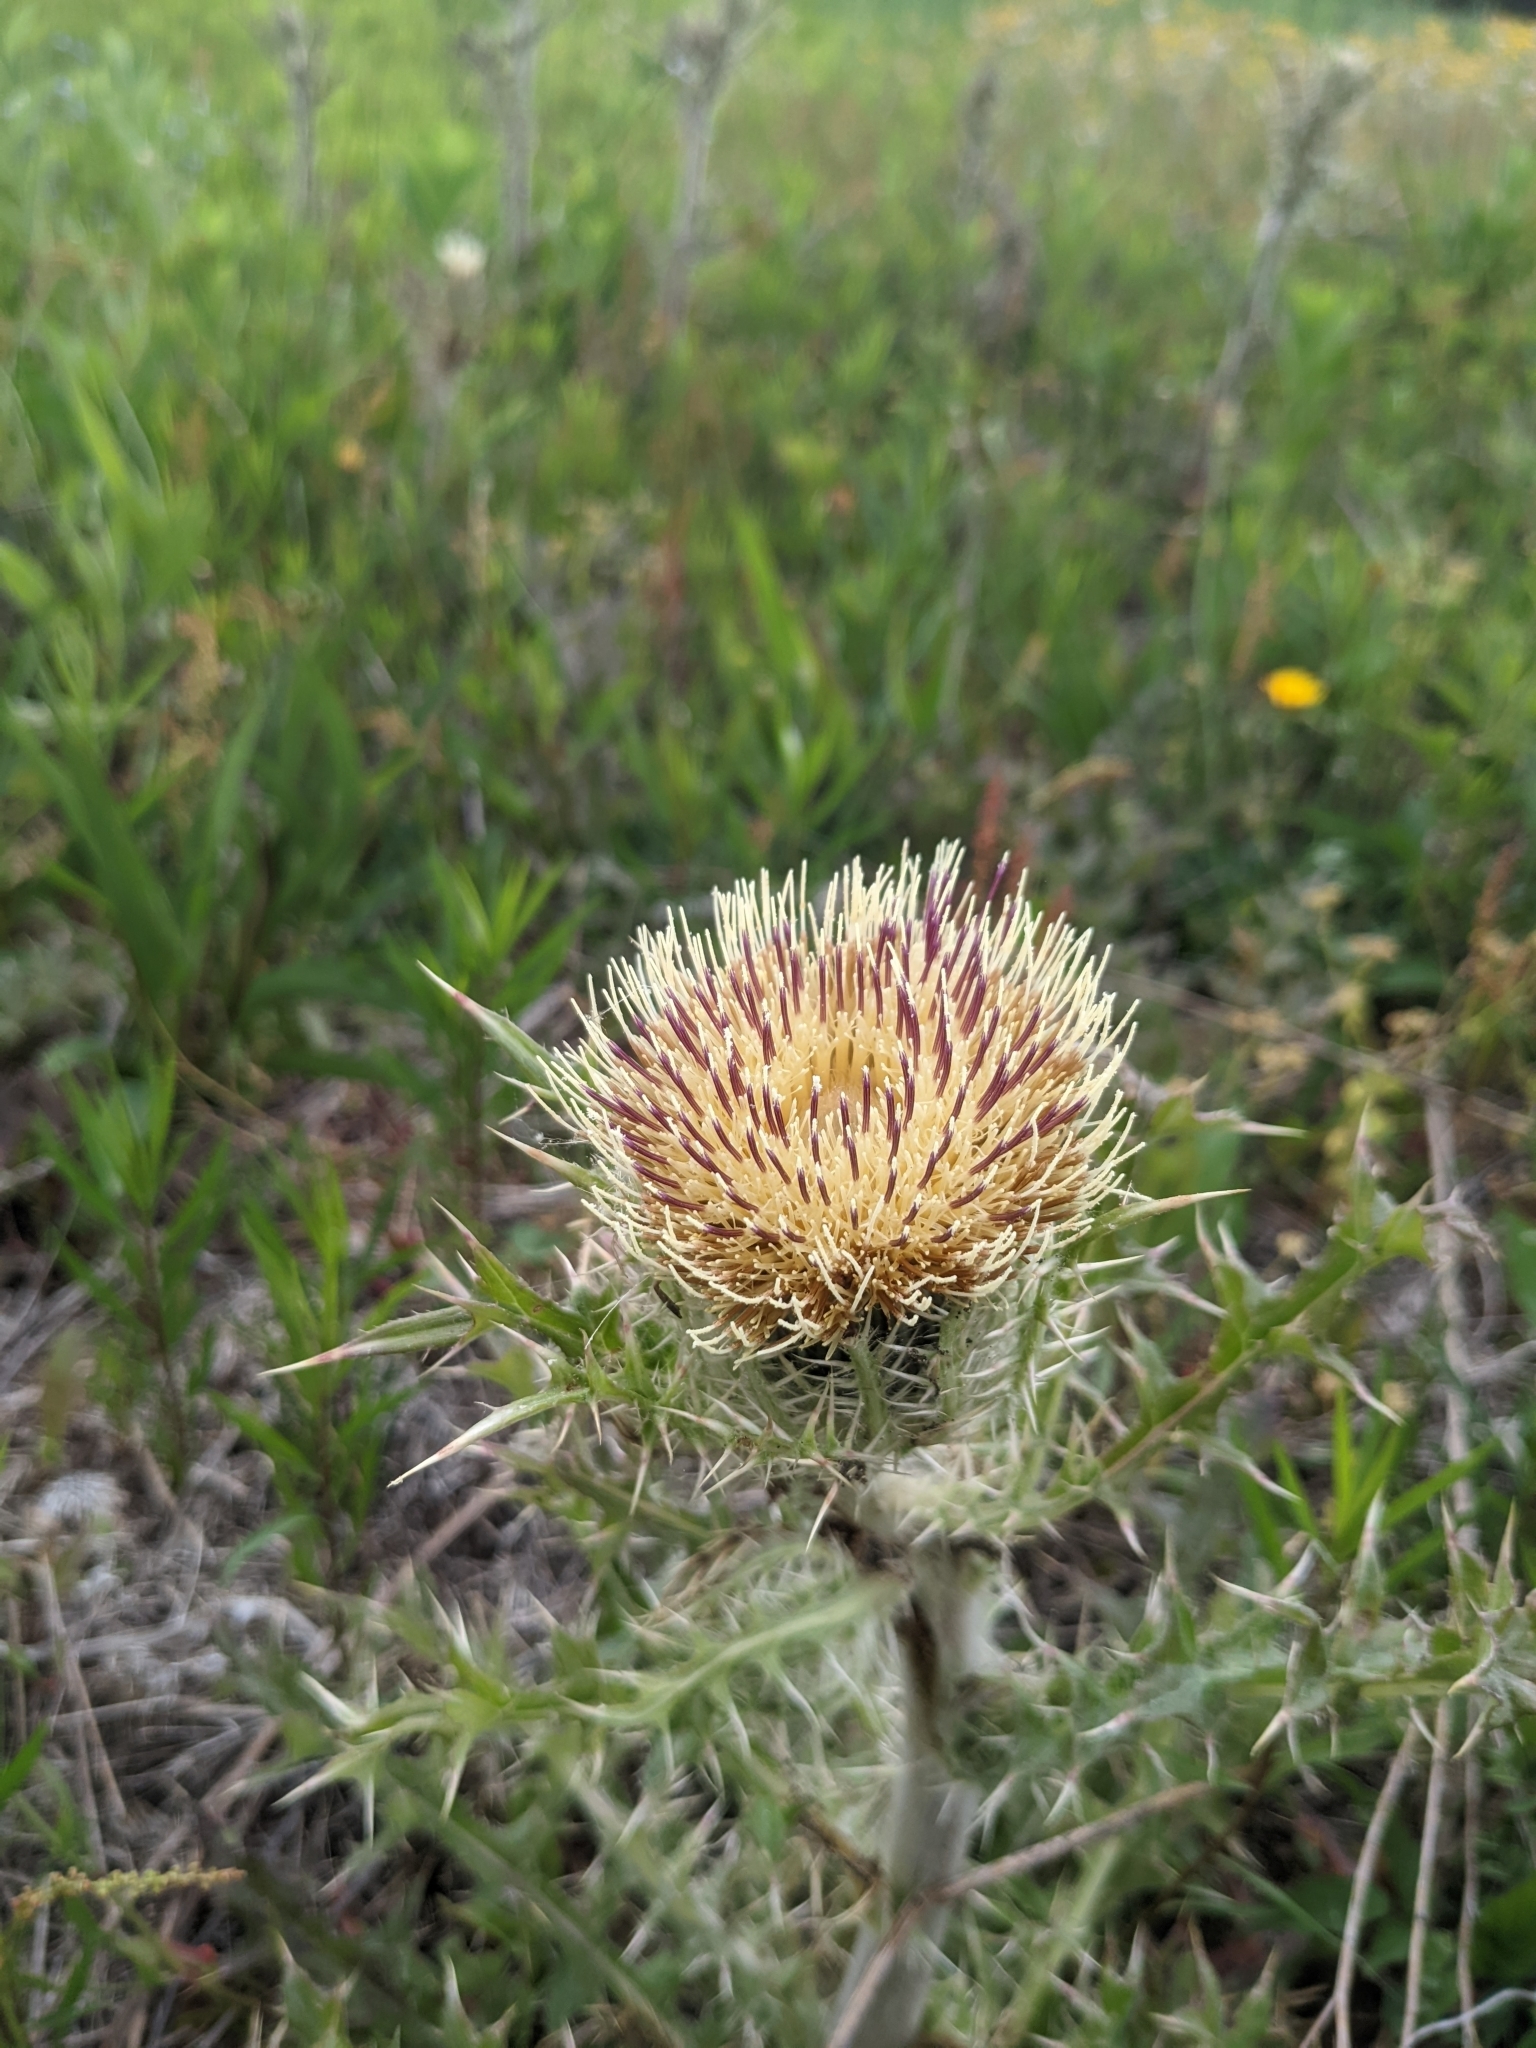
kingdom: Plantae
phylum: Tracheophyta
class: Magnoliopsida
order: Asterales
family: Asteraceae
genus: Cirsium
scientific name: Cirsium horridulum
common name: Bristly thistle
